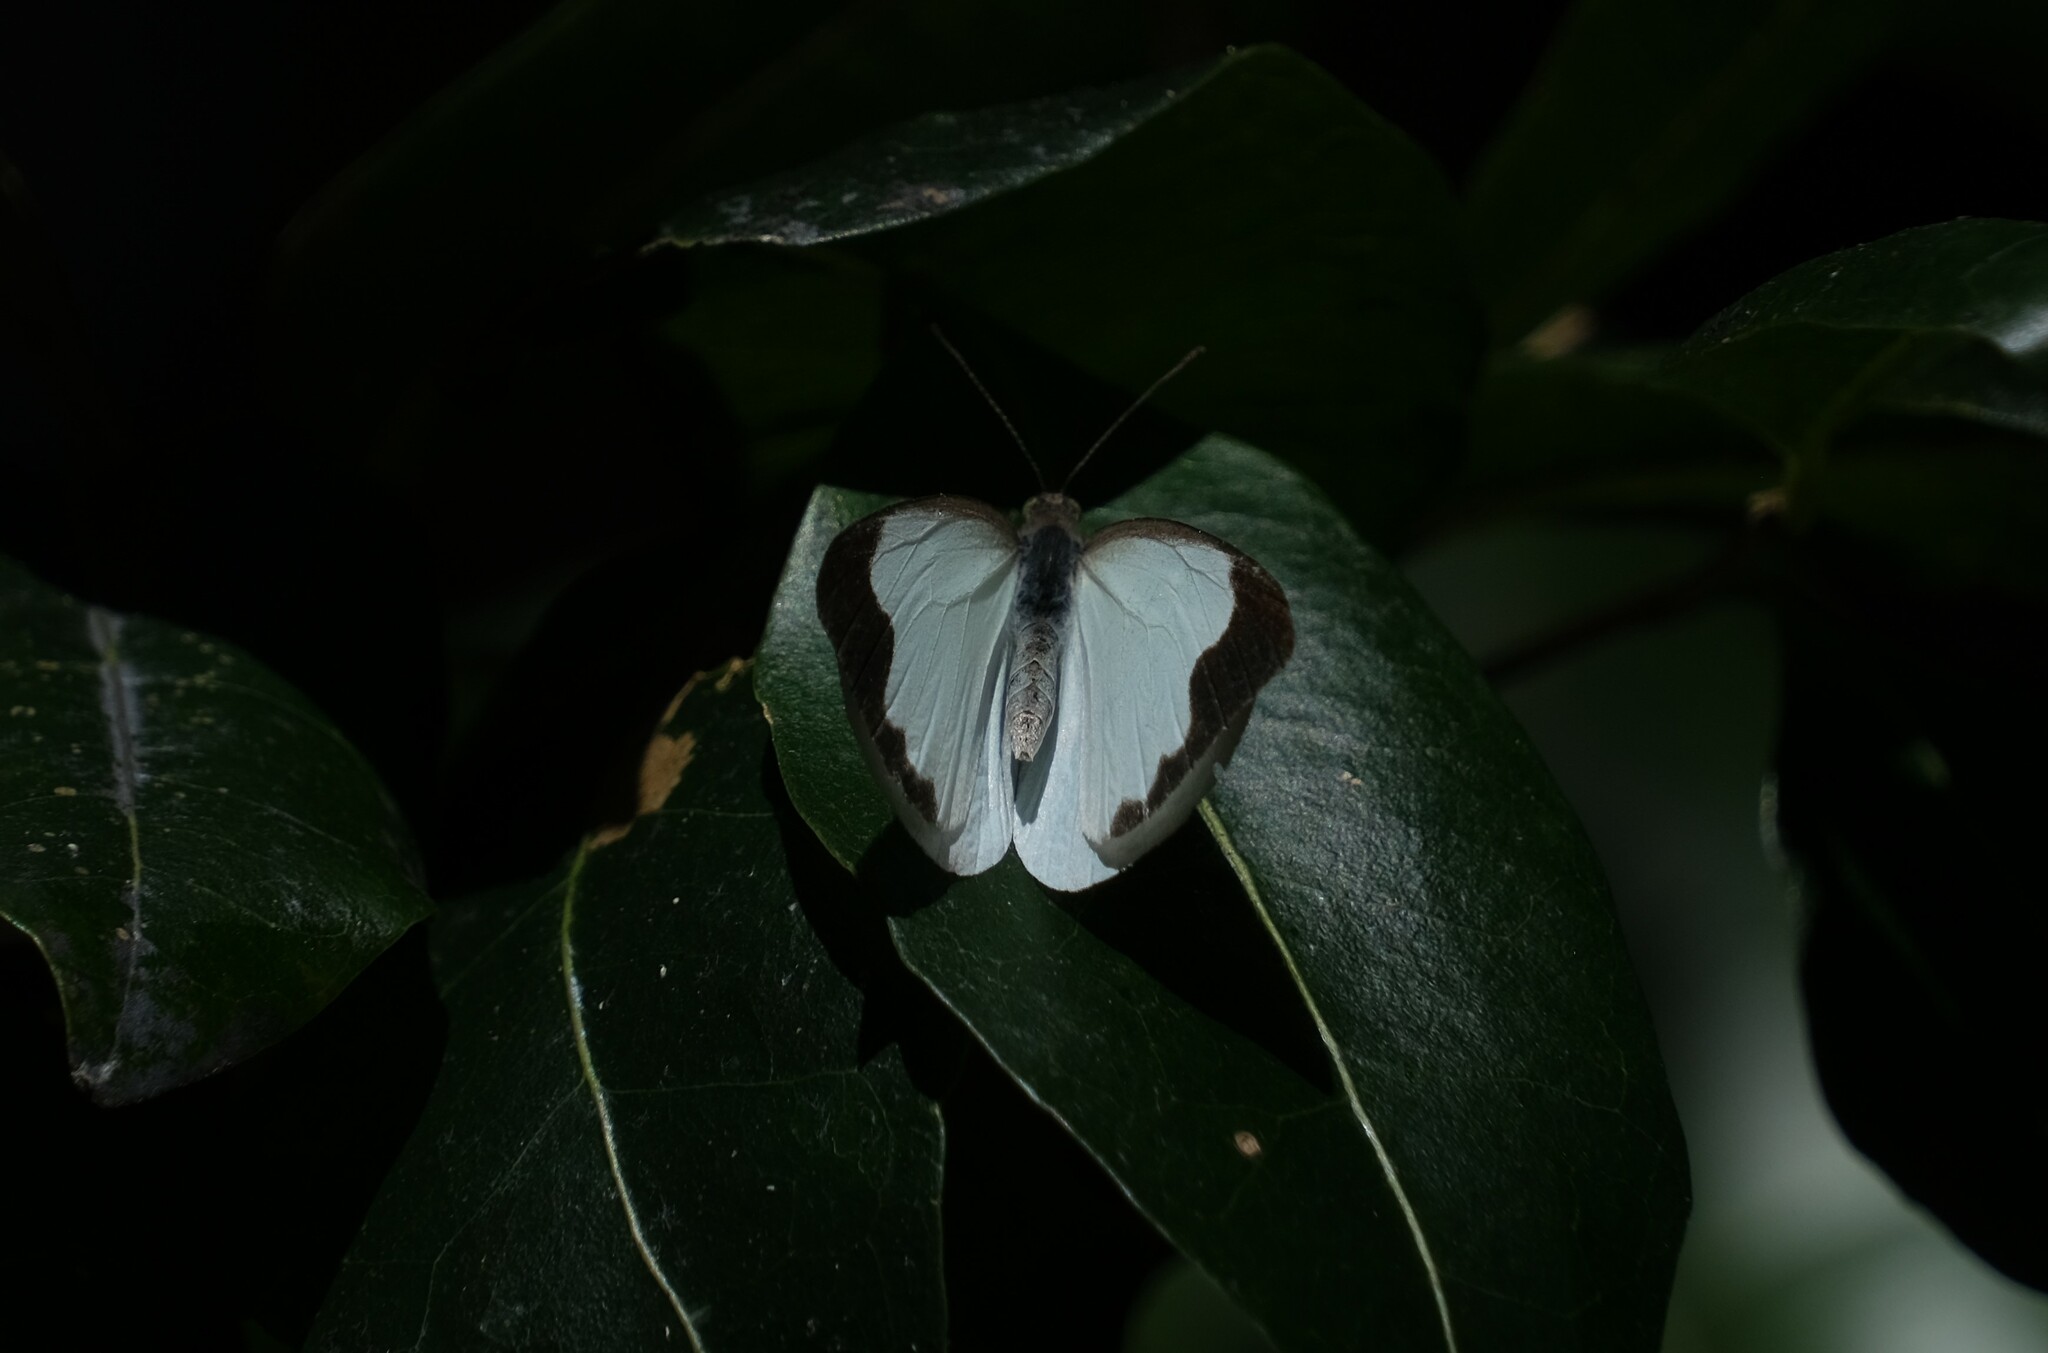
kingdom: Animalia
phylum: Arthropoda
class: Insecta
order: Lepidoptera
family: Pieridae
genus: Elodina
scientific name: Elodina angulipennis
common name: Common pearl white
